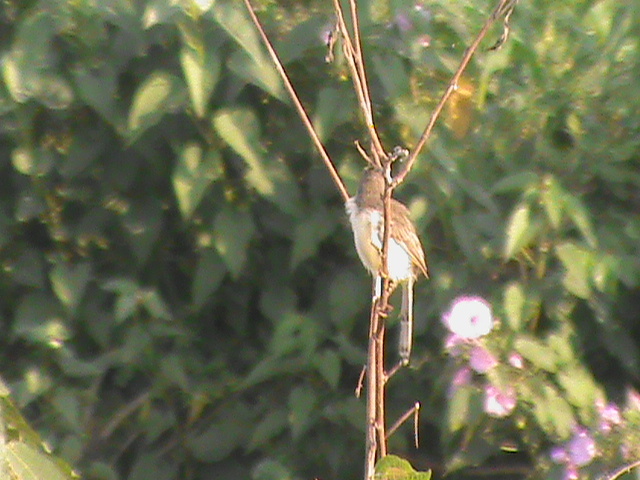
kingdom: Animalia
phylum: Chordata
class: Aves
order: Passeriformes
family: Cisticolidae
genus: Prinia
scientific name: Prinia inornata
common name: Plain prinia
